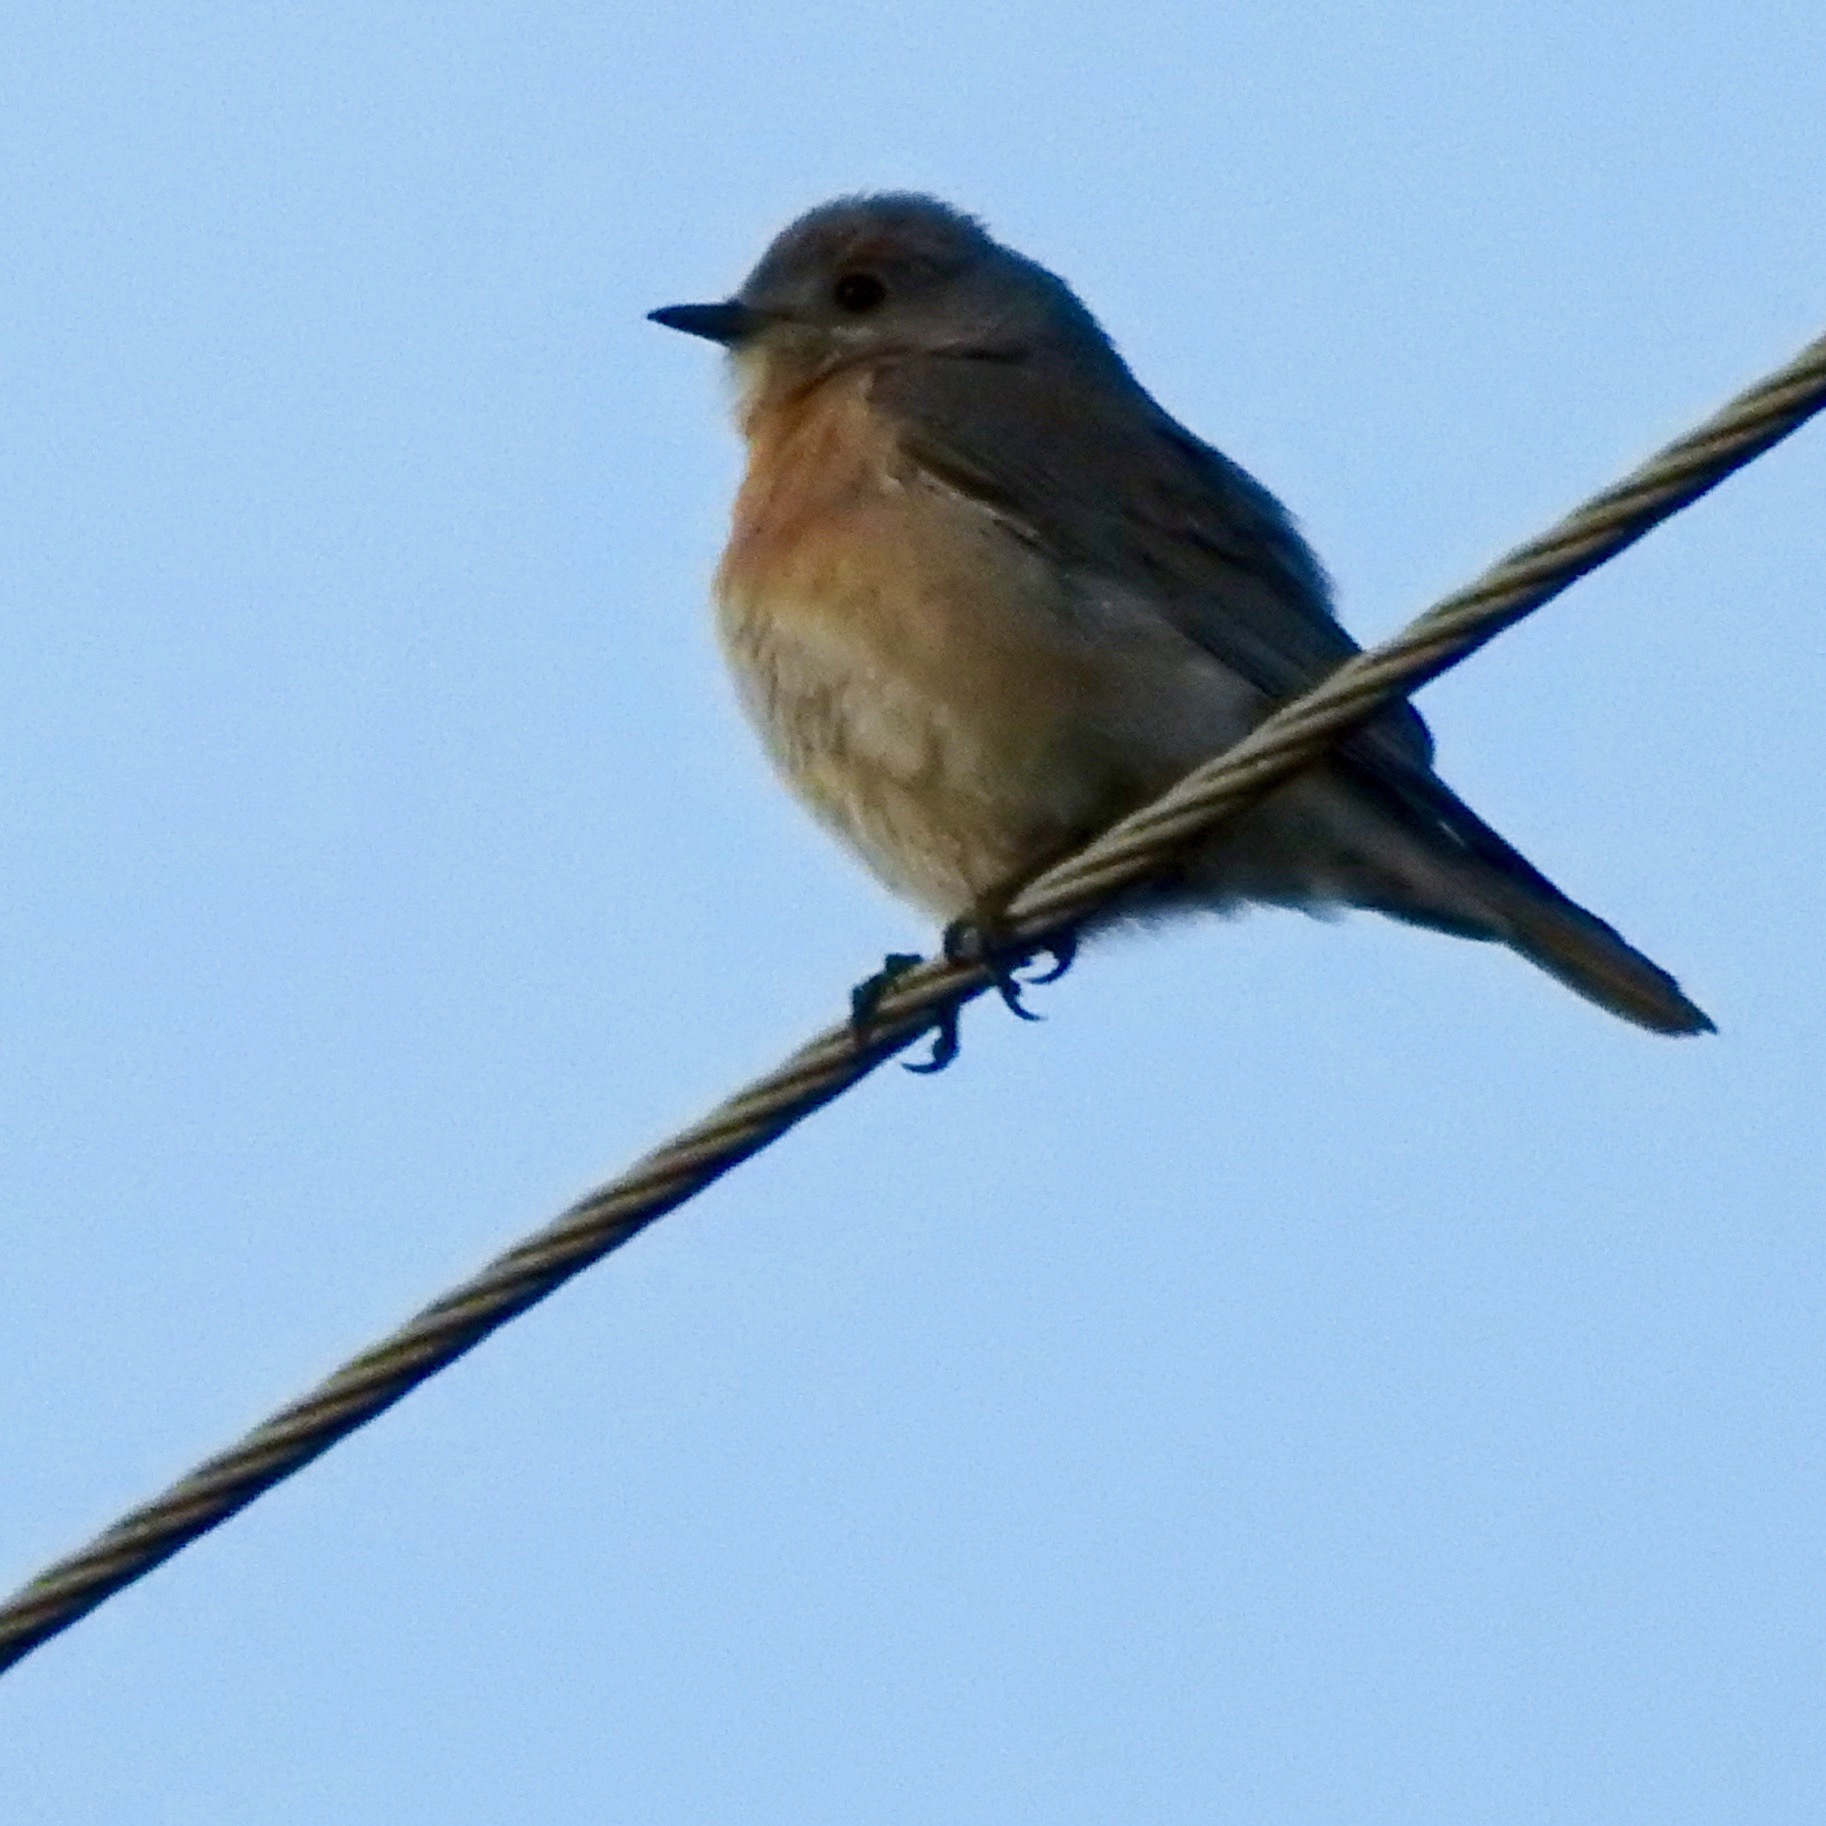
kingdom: Animalia
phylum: Chordata
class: Aves
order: Passeriformes
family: Turdidae
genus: Sialia
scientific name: Sialia mexicana
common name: Western bluebird
